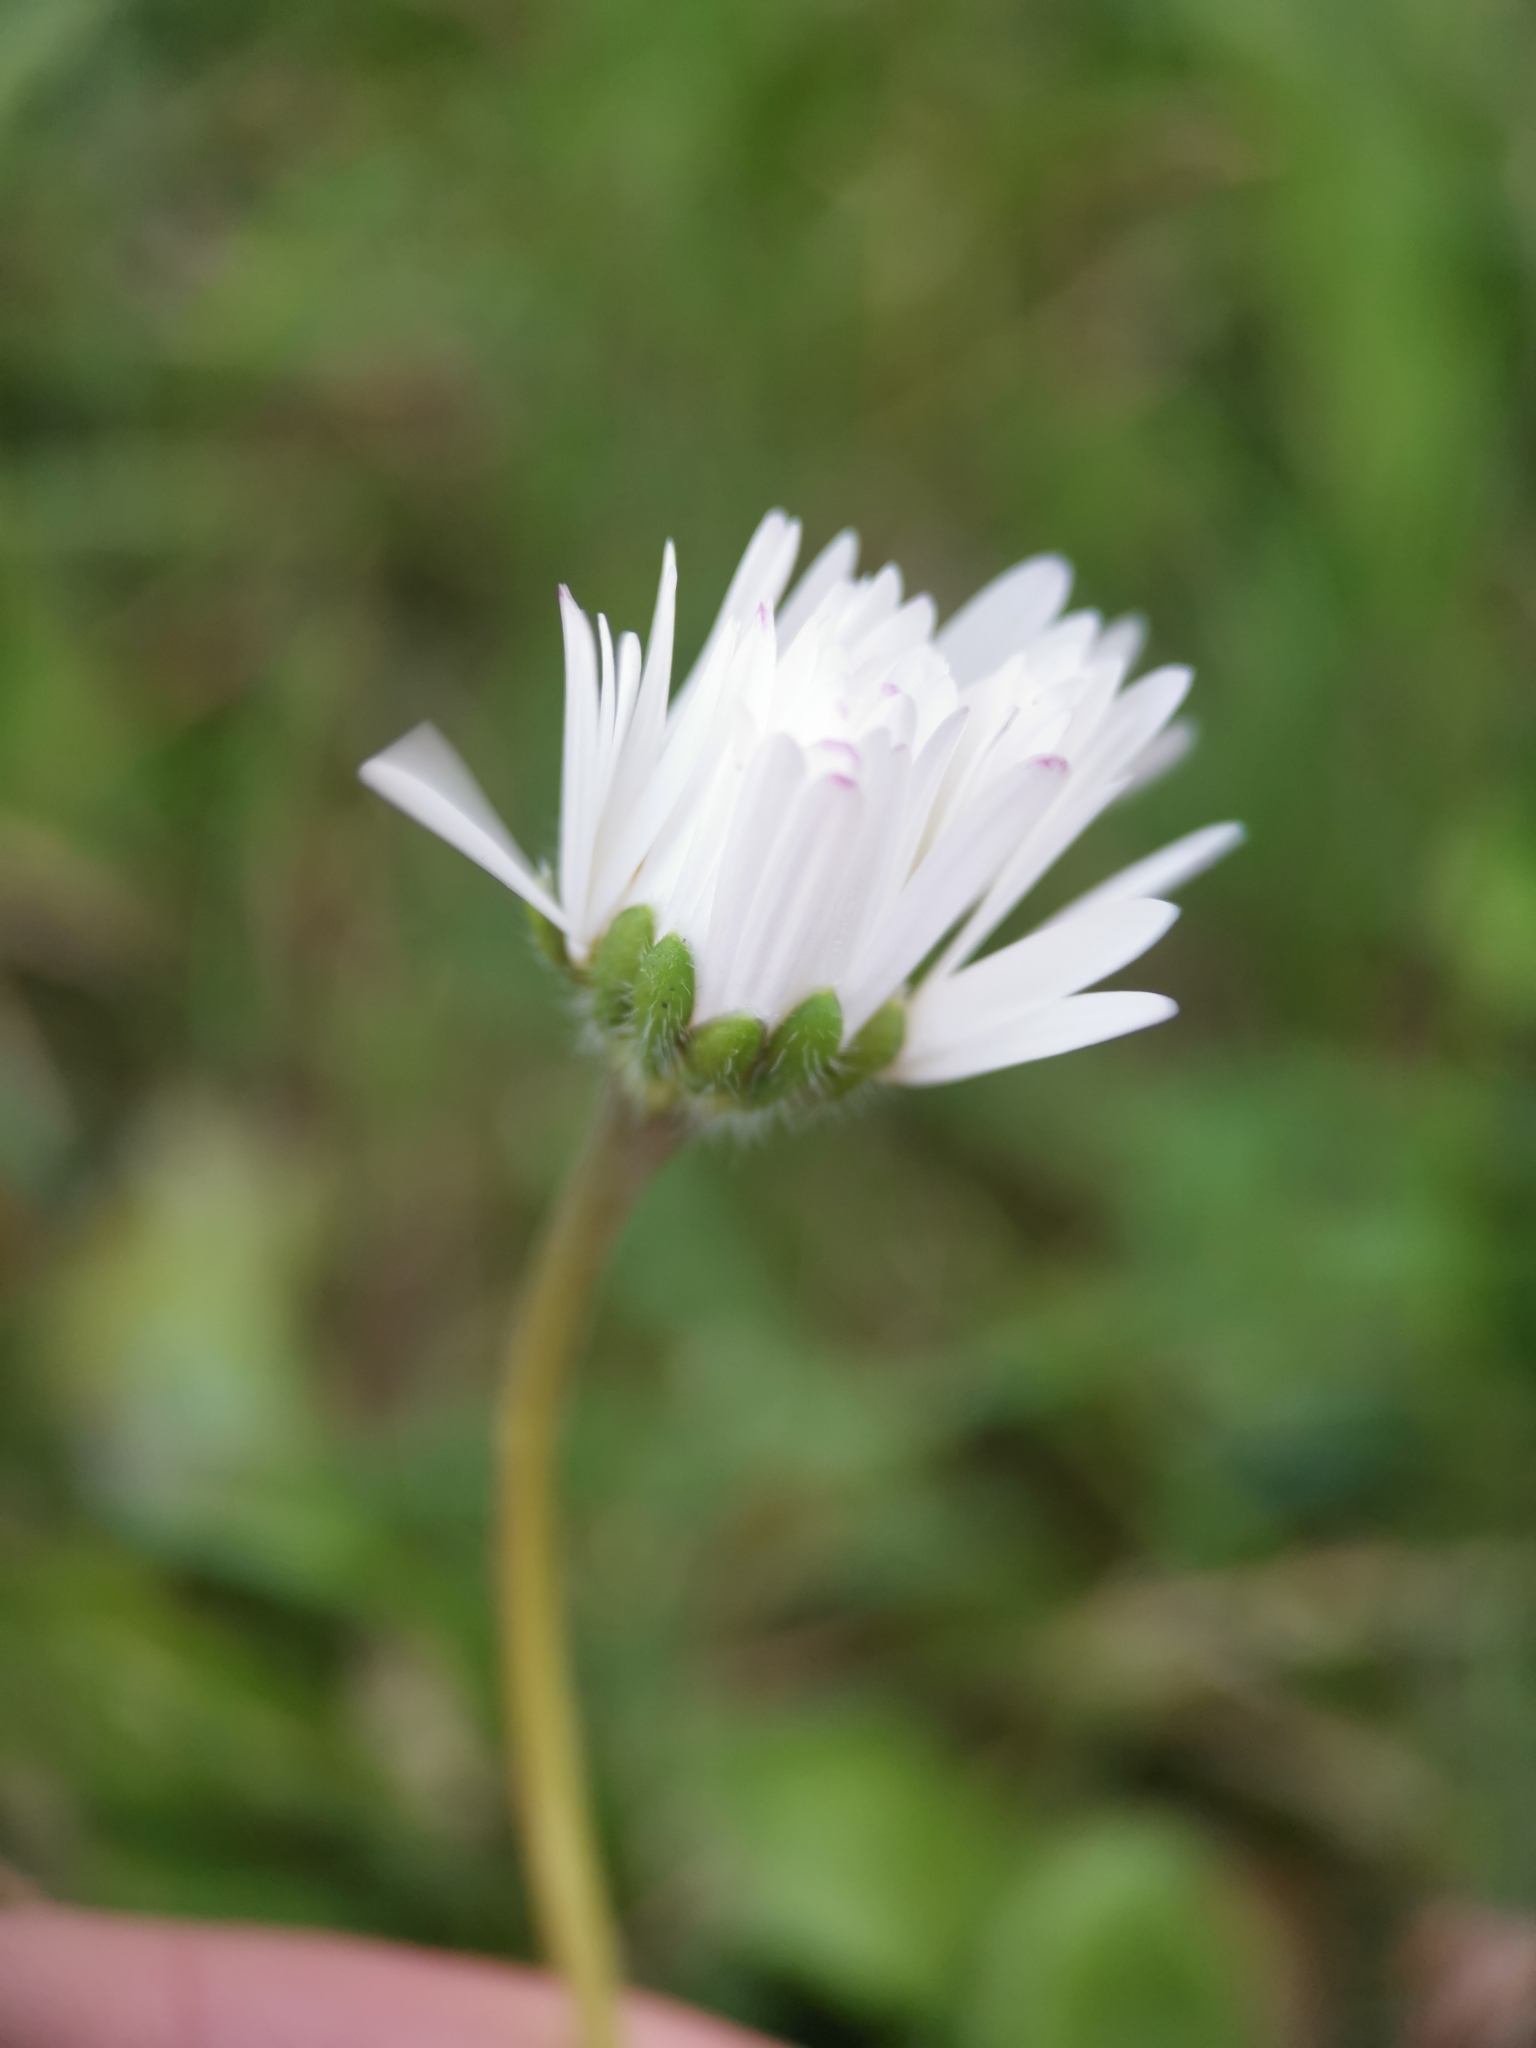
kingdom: Plantae
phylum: Tracheophyta
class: Magnoliopsida
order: Asterales
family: Asteraceae
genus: Bellis
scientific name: Bellis perennis
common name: Lawndaisy
